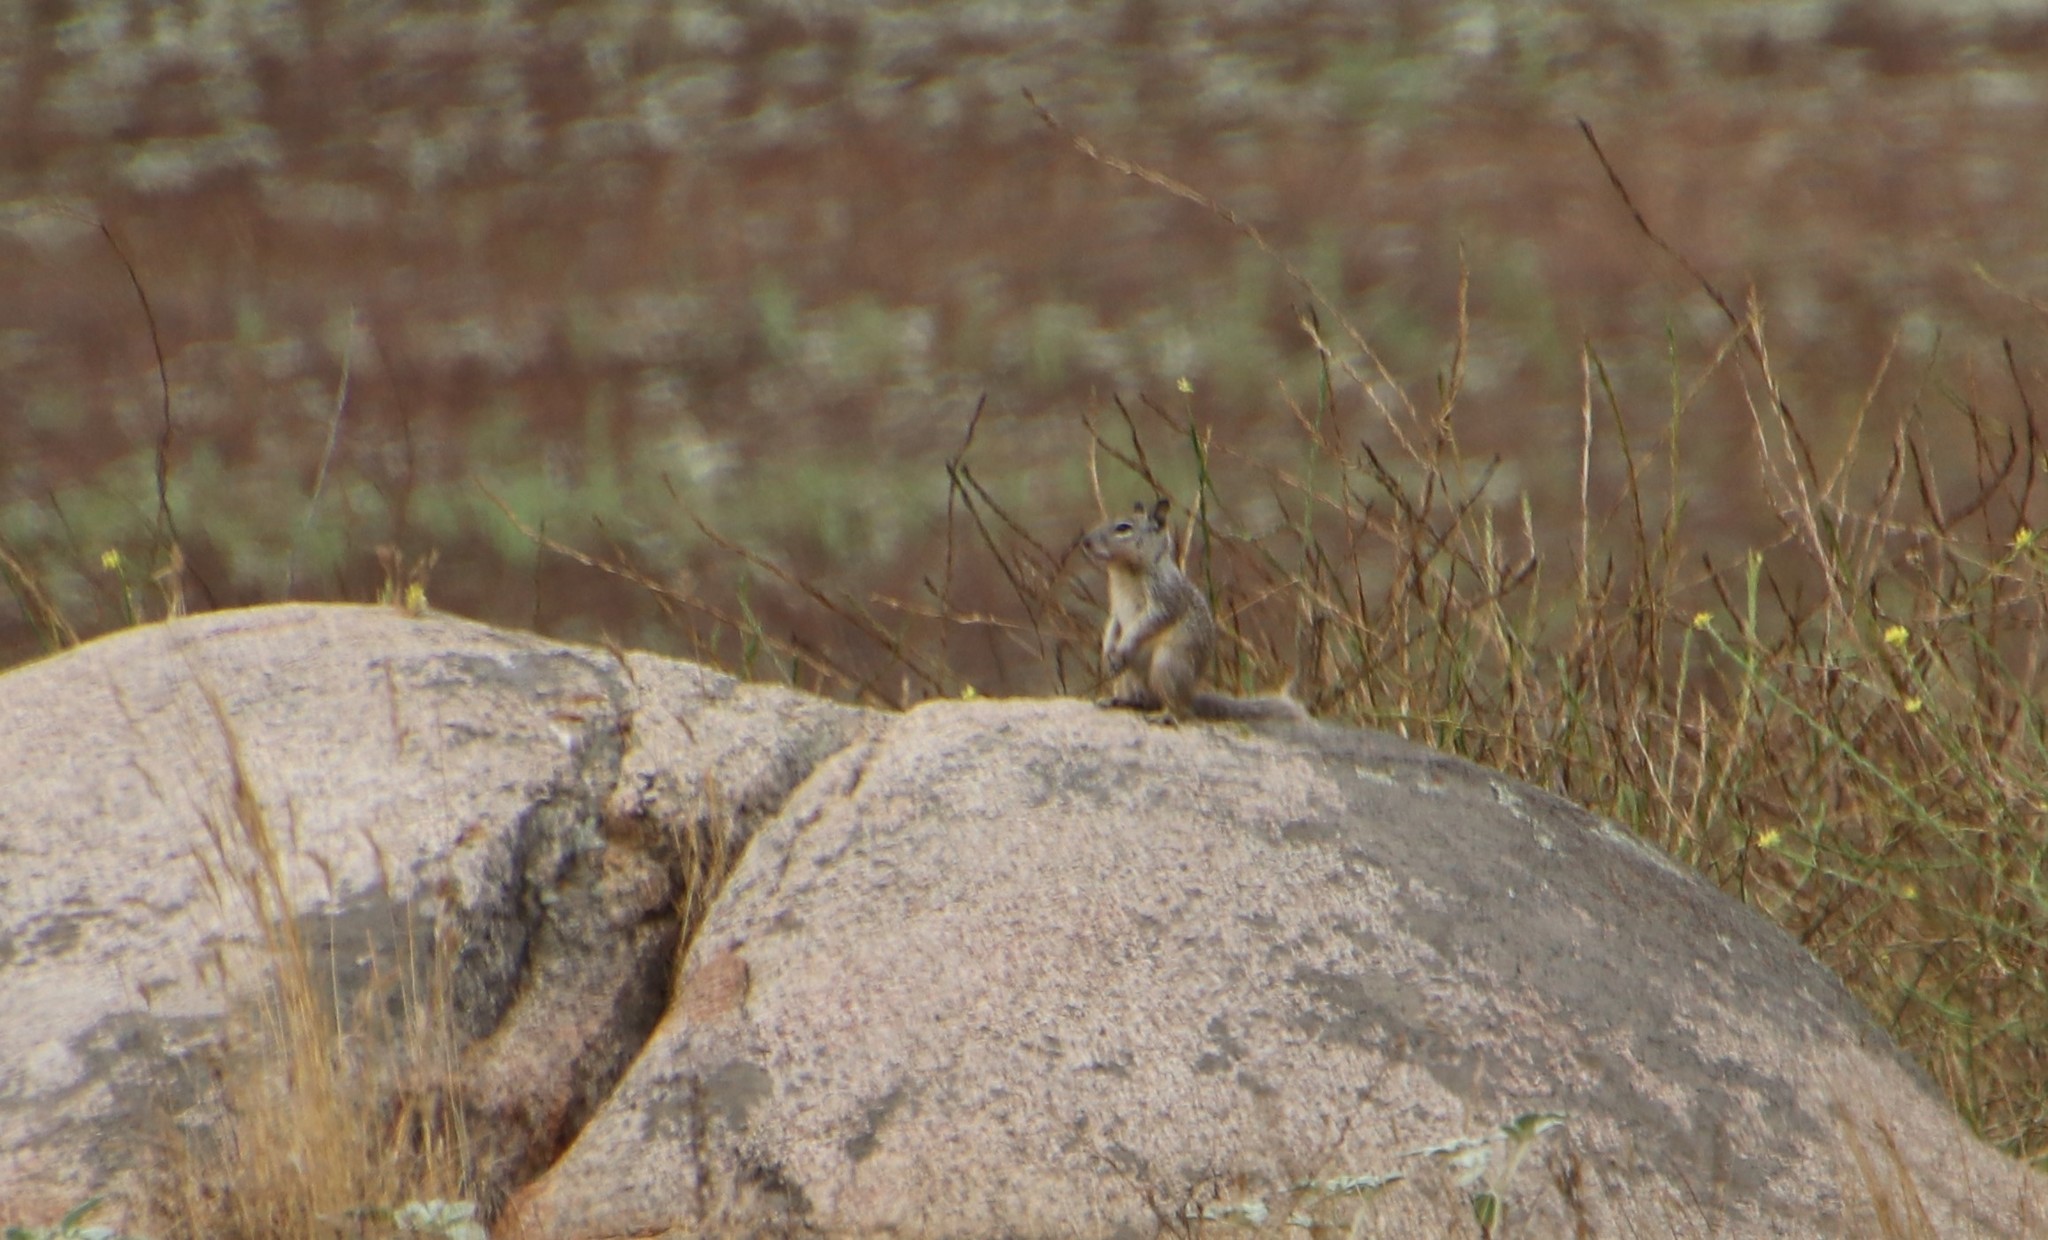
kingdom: Animalia
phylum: Chordata
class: Mammalia
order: Rodentia
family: Sciuridae
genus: Otospermophilus
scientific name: Otospermophilus beecheyi
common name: California ground squirrel
